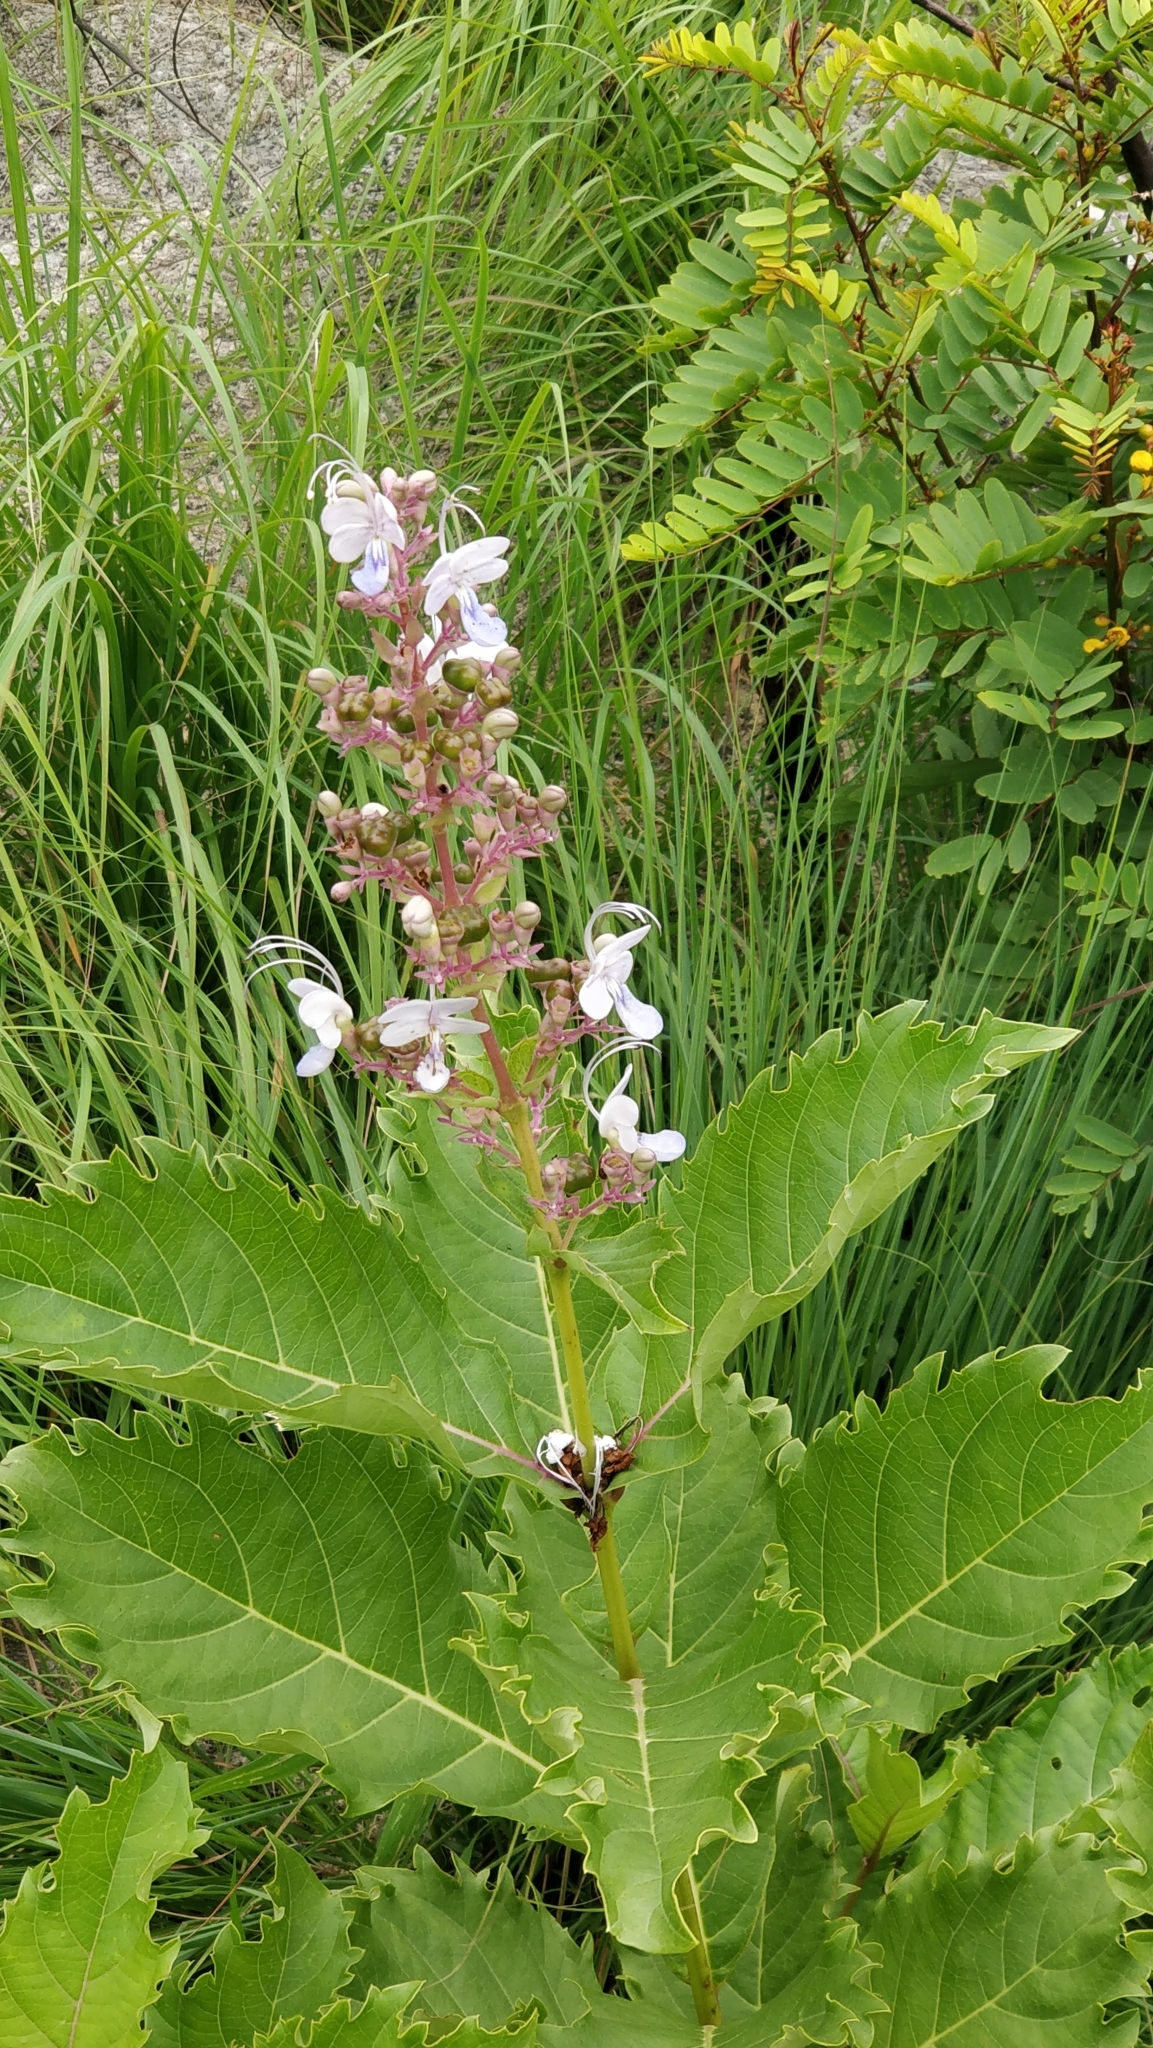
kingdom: Plantae
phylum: Tracheophyta
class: Magnoliopsida
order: Lamiales
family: Lamiaceae
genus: Rotheca
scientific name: Rotheca serrata
